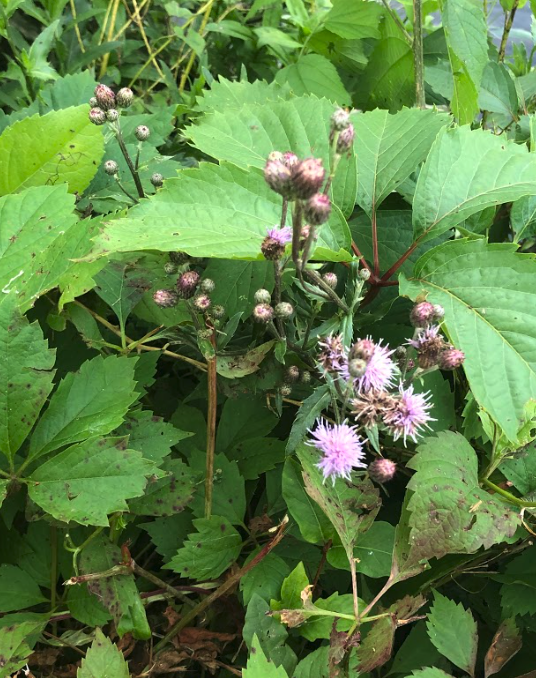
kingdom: Plantae
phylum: Tracheophyta
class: Magnoliopsida
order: Asterales
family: Asteraceae
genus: Cirsium
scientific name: Cirsium arvense
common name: Creeping thistle
